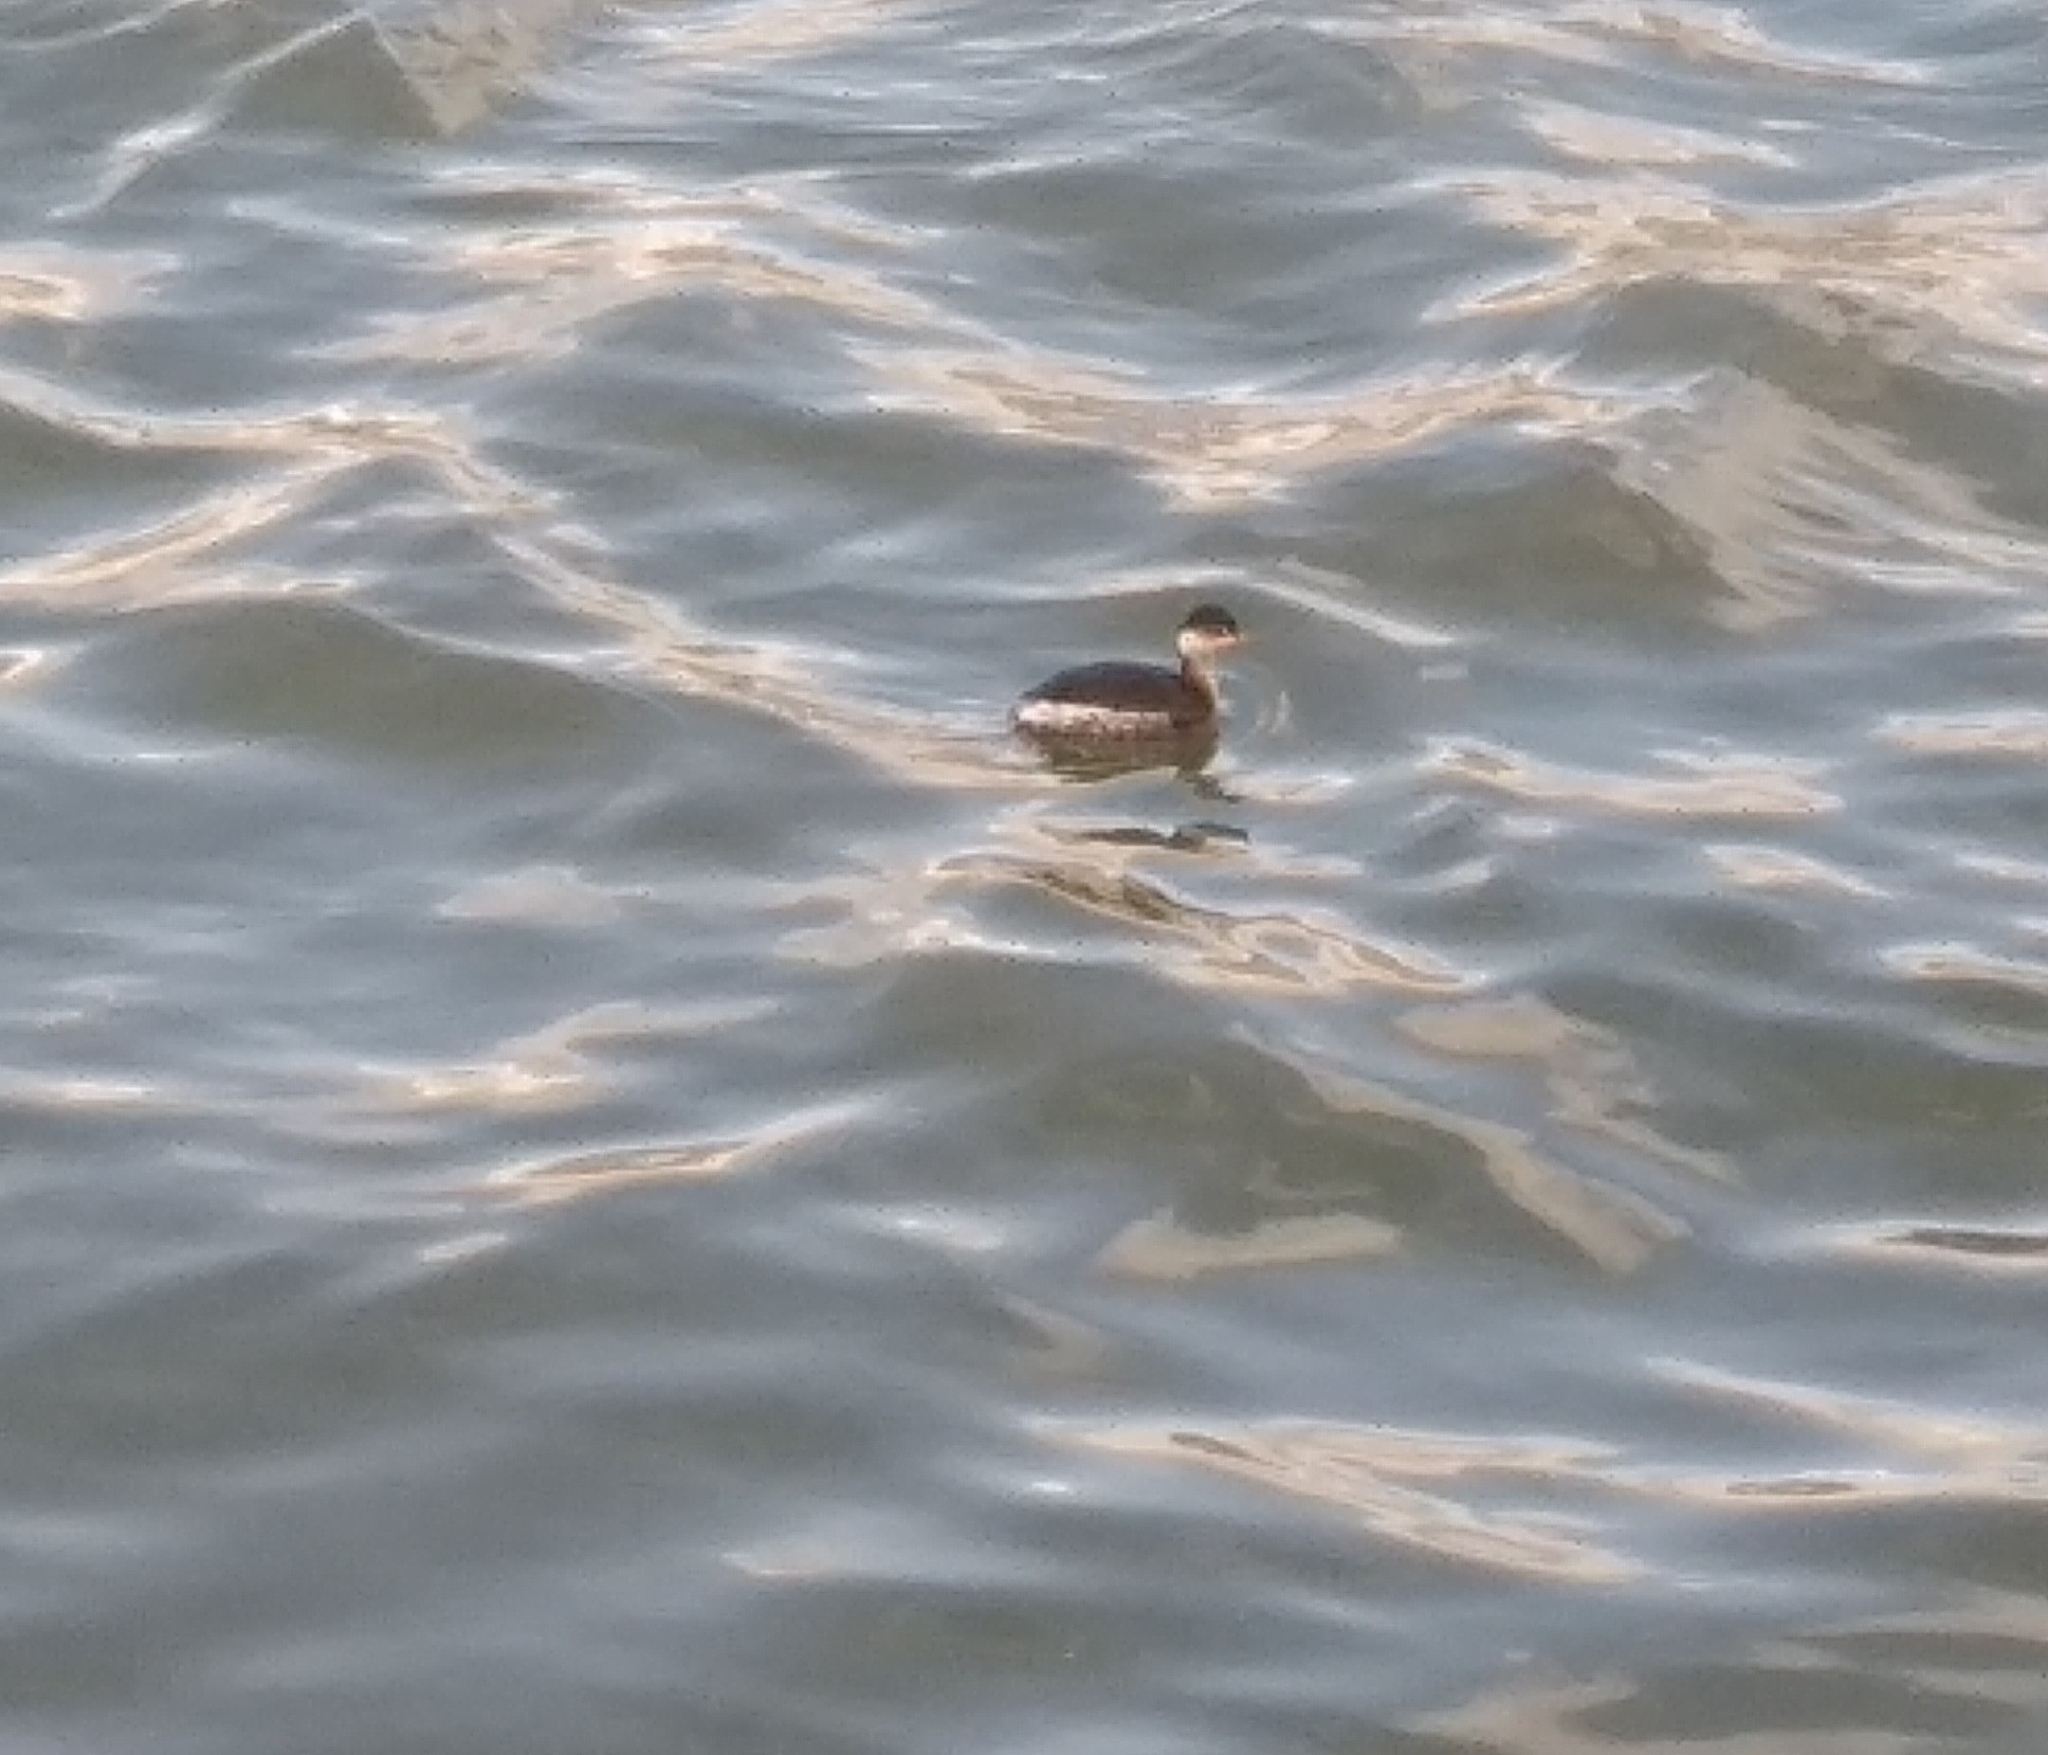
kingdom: Animalia
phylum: Chordata
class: Aves
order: Podicipediformes
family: Podicipedidae
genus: Podiceps
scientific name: Podiceps nigricollis
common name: Black-necked grebe
